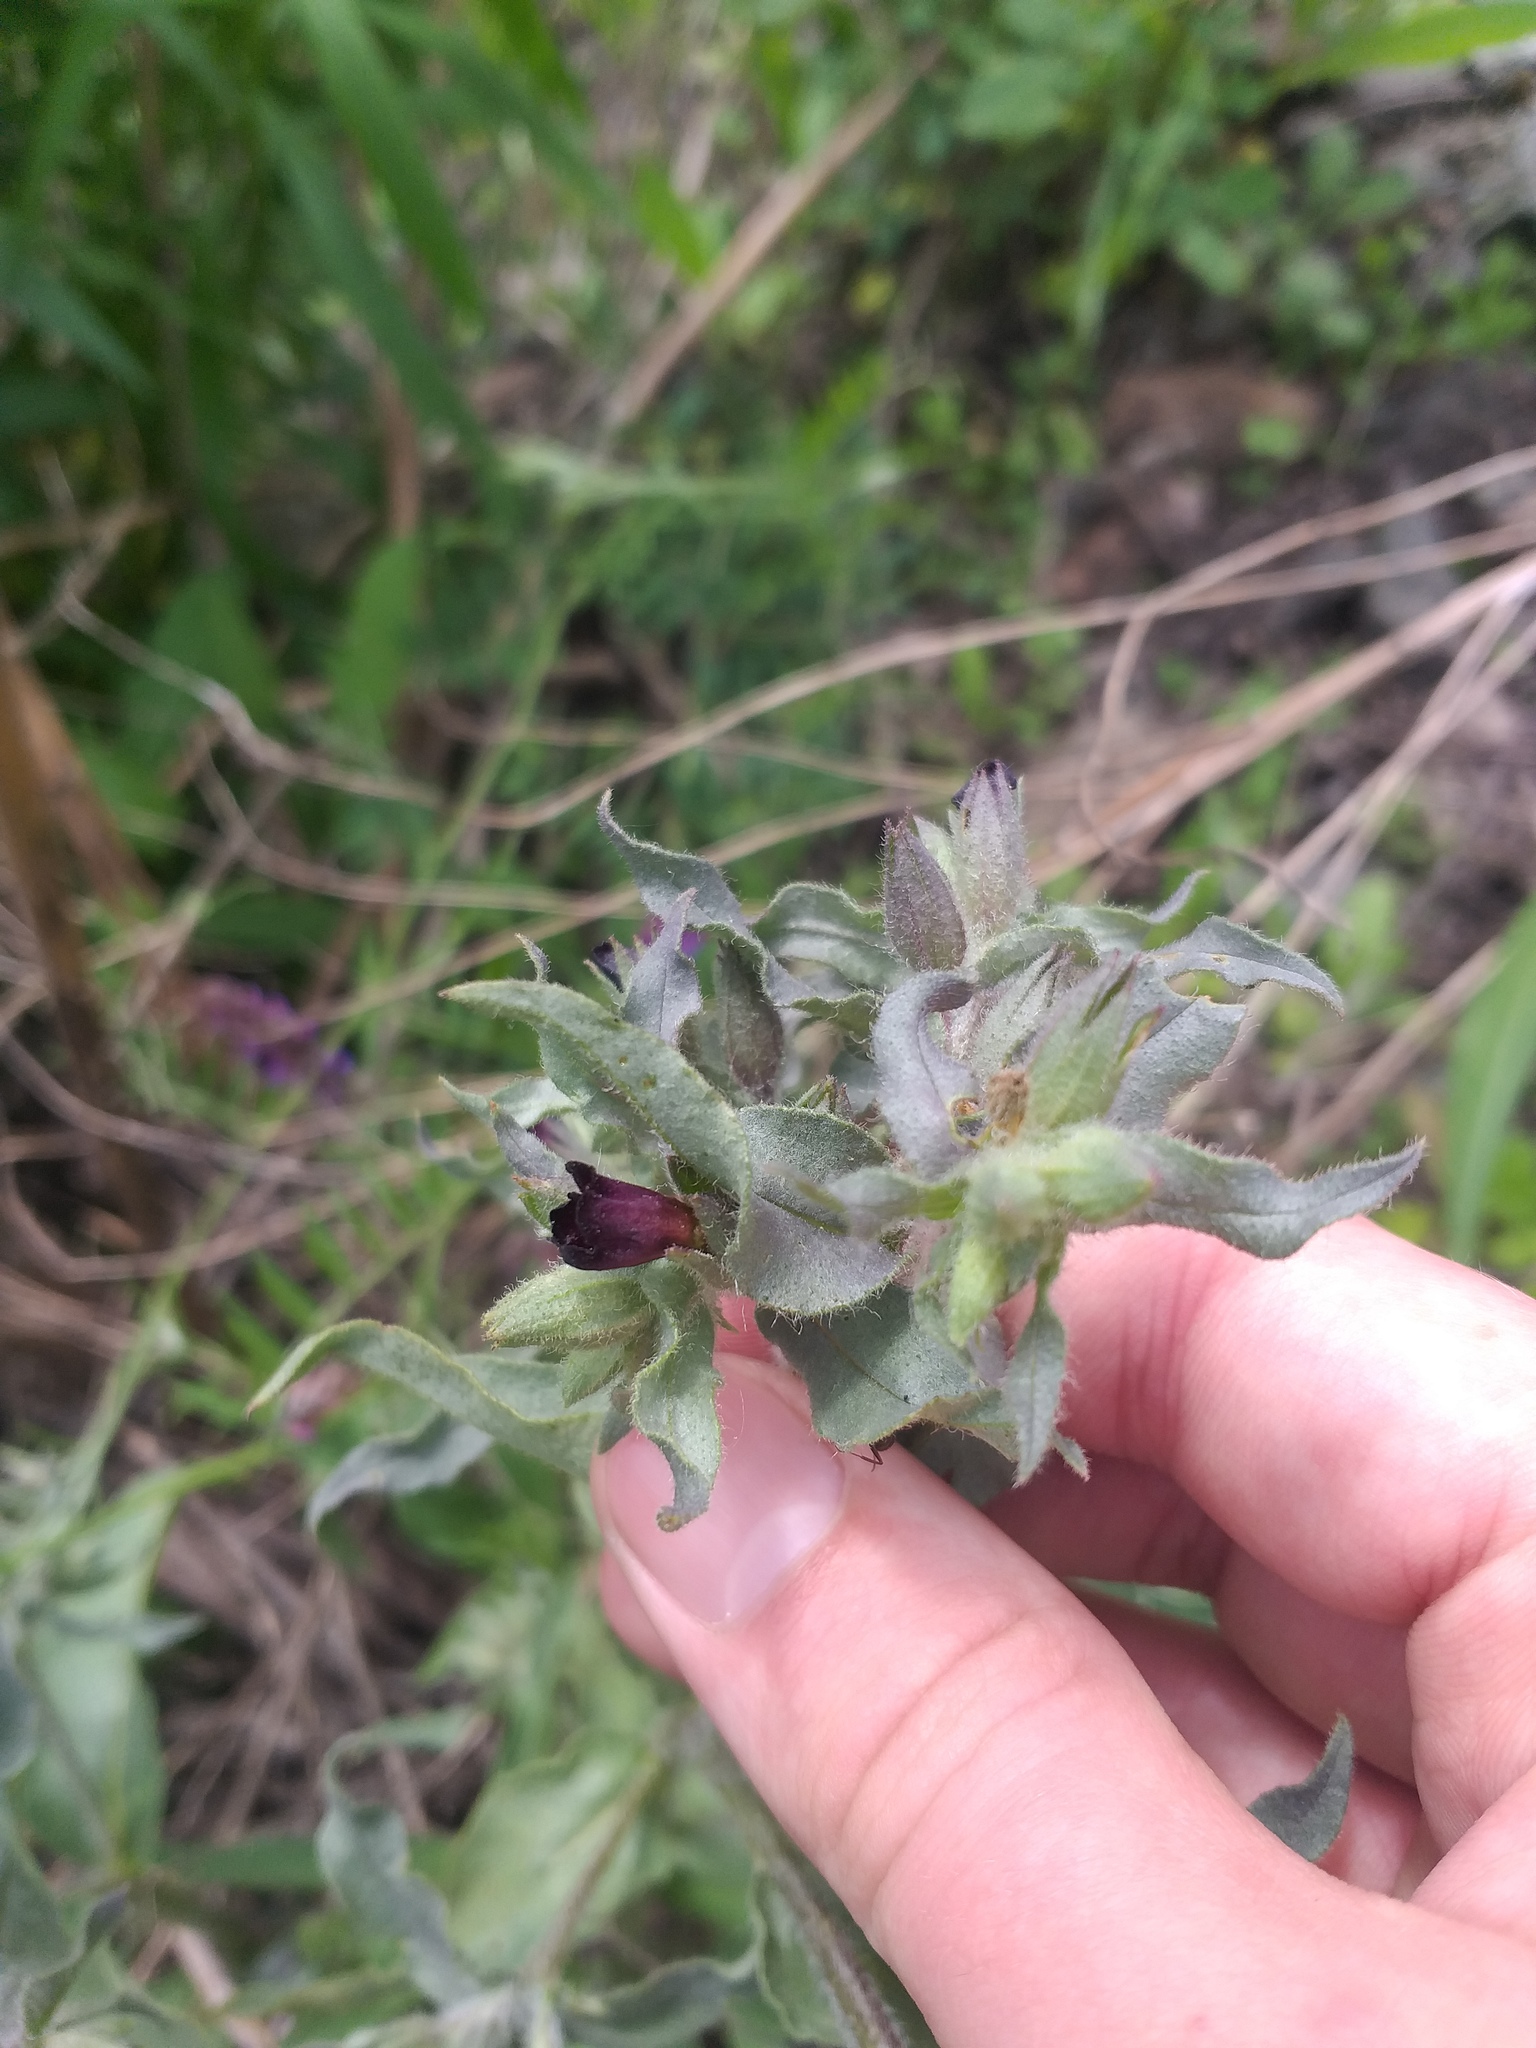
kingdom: Plantae
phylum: Tracheophyta
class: Magnoliopsida
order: Boraginales
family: Boraginaceae
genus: Nonea
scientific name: Nonea pulla
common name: Brown nonea
